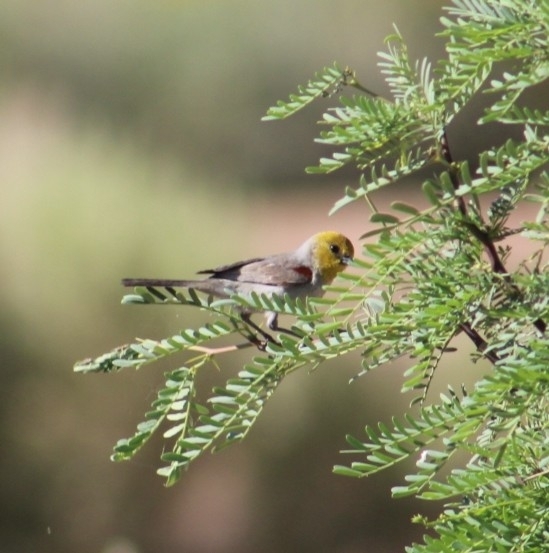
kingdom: Animalia
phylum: Chordata
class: Aves
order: Passeriformes
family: Remizidae
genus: Auriparus
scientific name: Auriparus flaviceps
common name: Verdin
